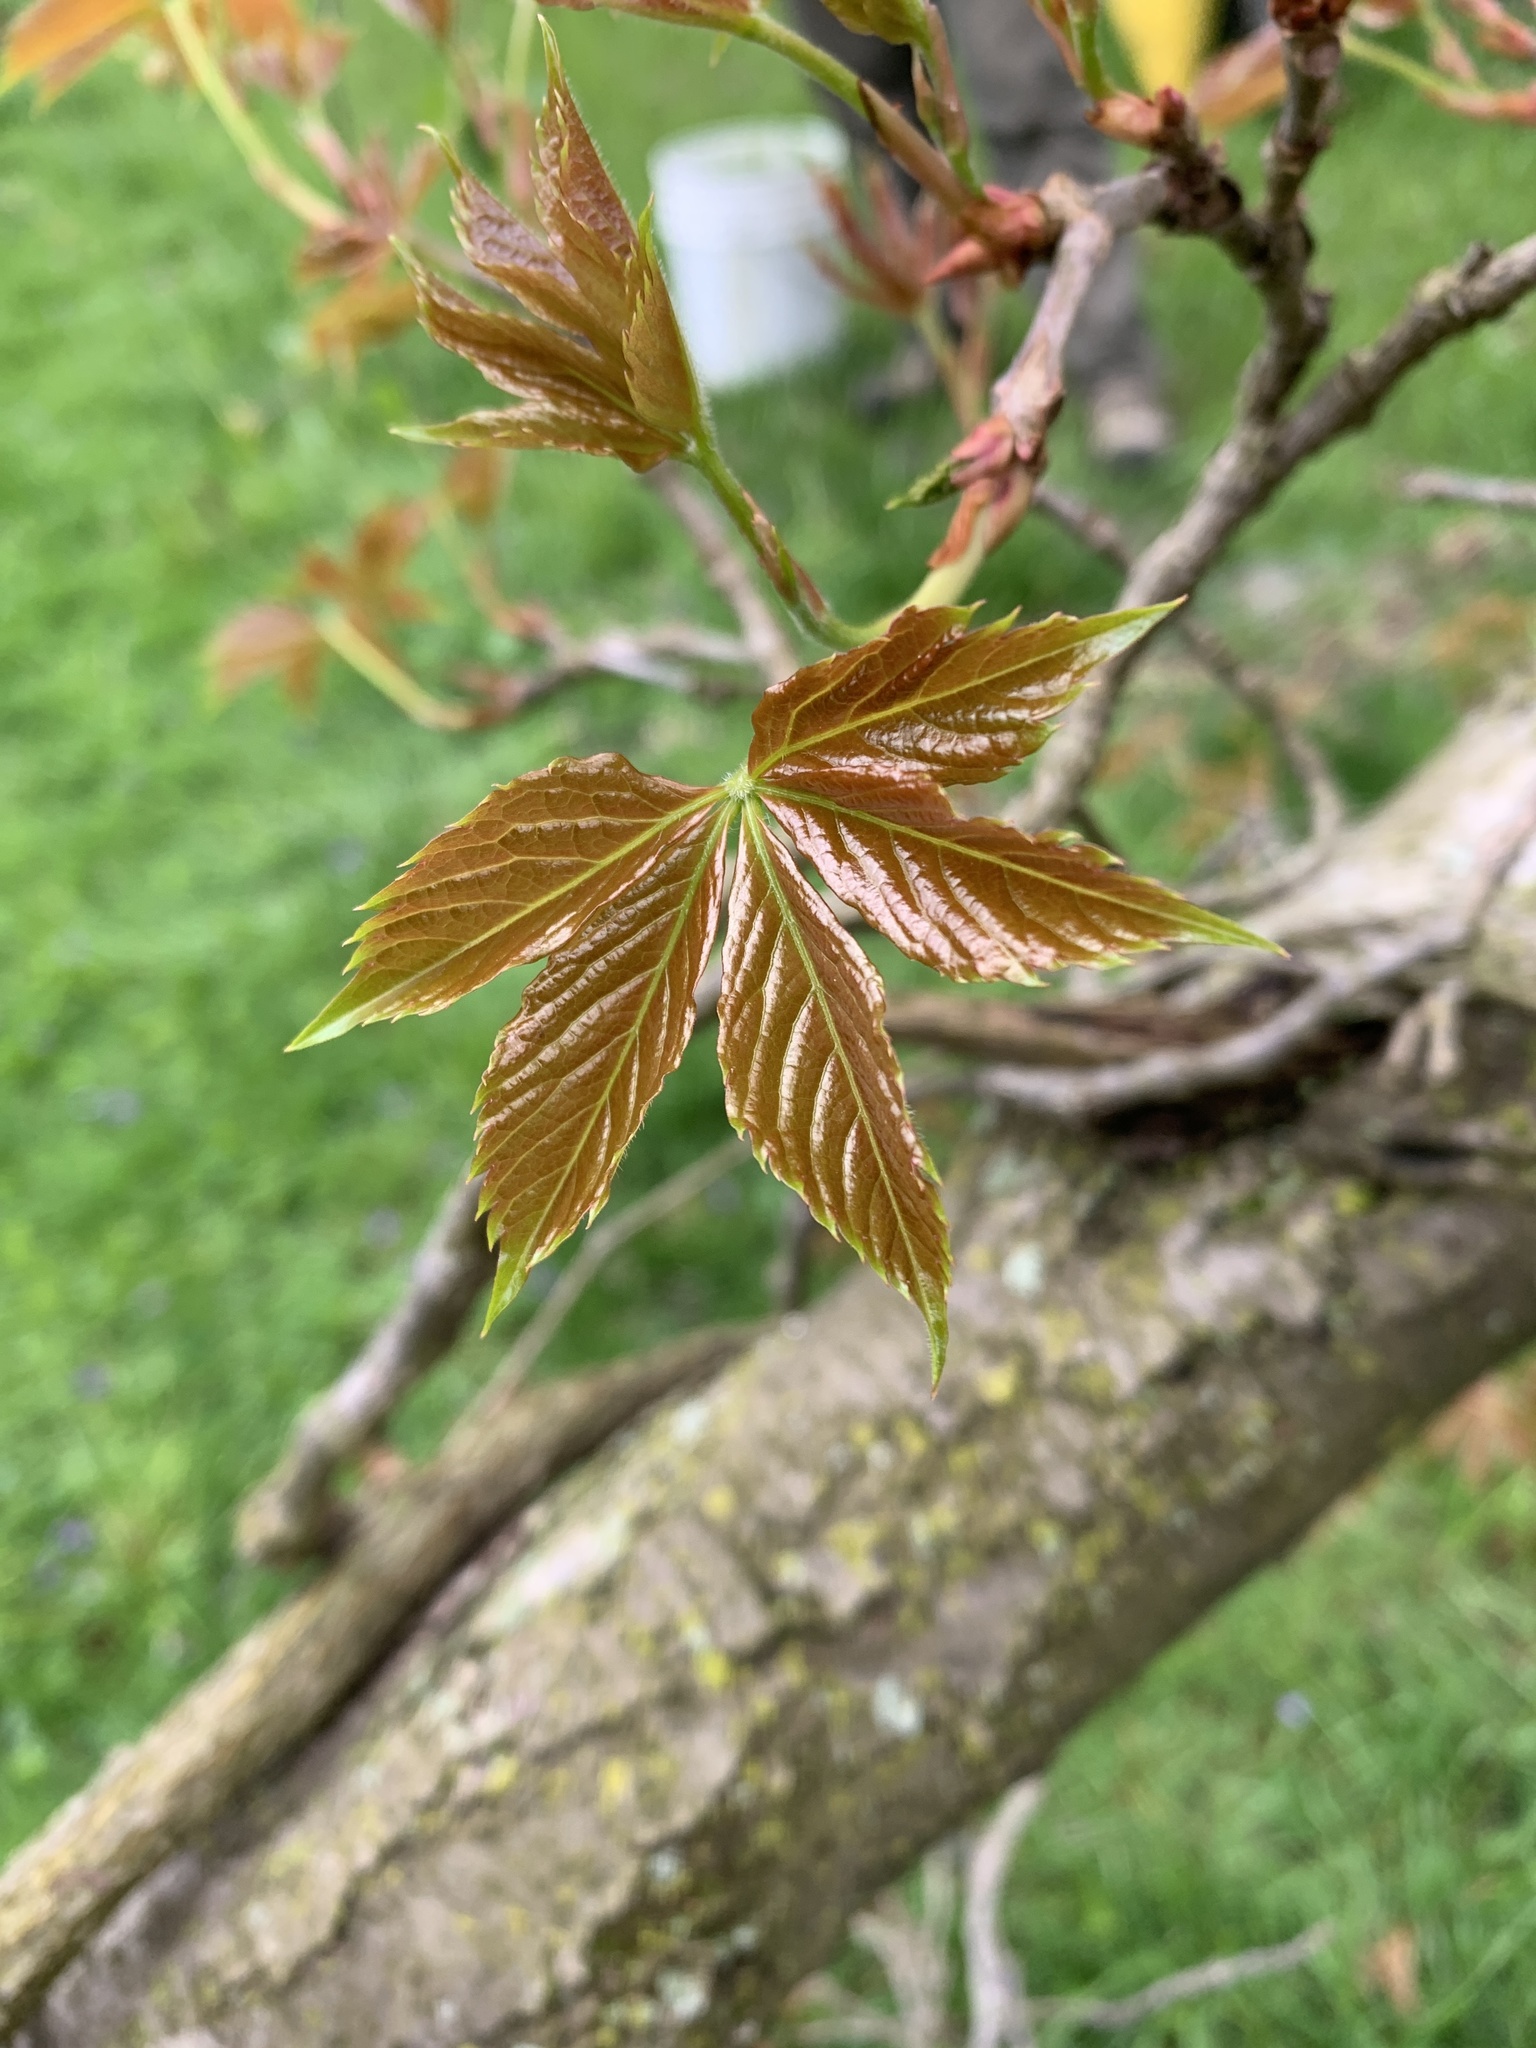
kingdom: Plantae
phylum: Tracheophyta
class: Magnoliopsida
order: Vitales
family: Vitaceae
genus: Parthenocissus
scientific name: Parthenocissus quinquefolia
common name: Virginia-creeper
